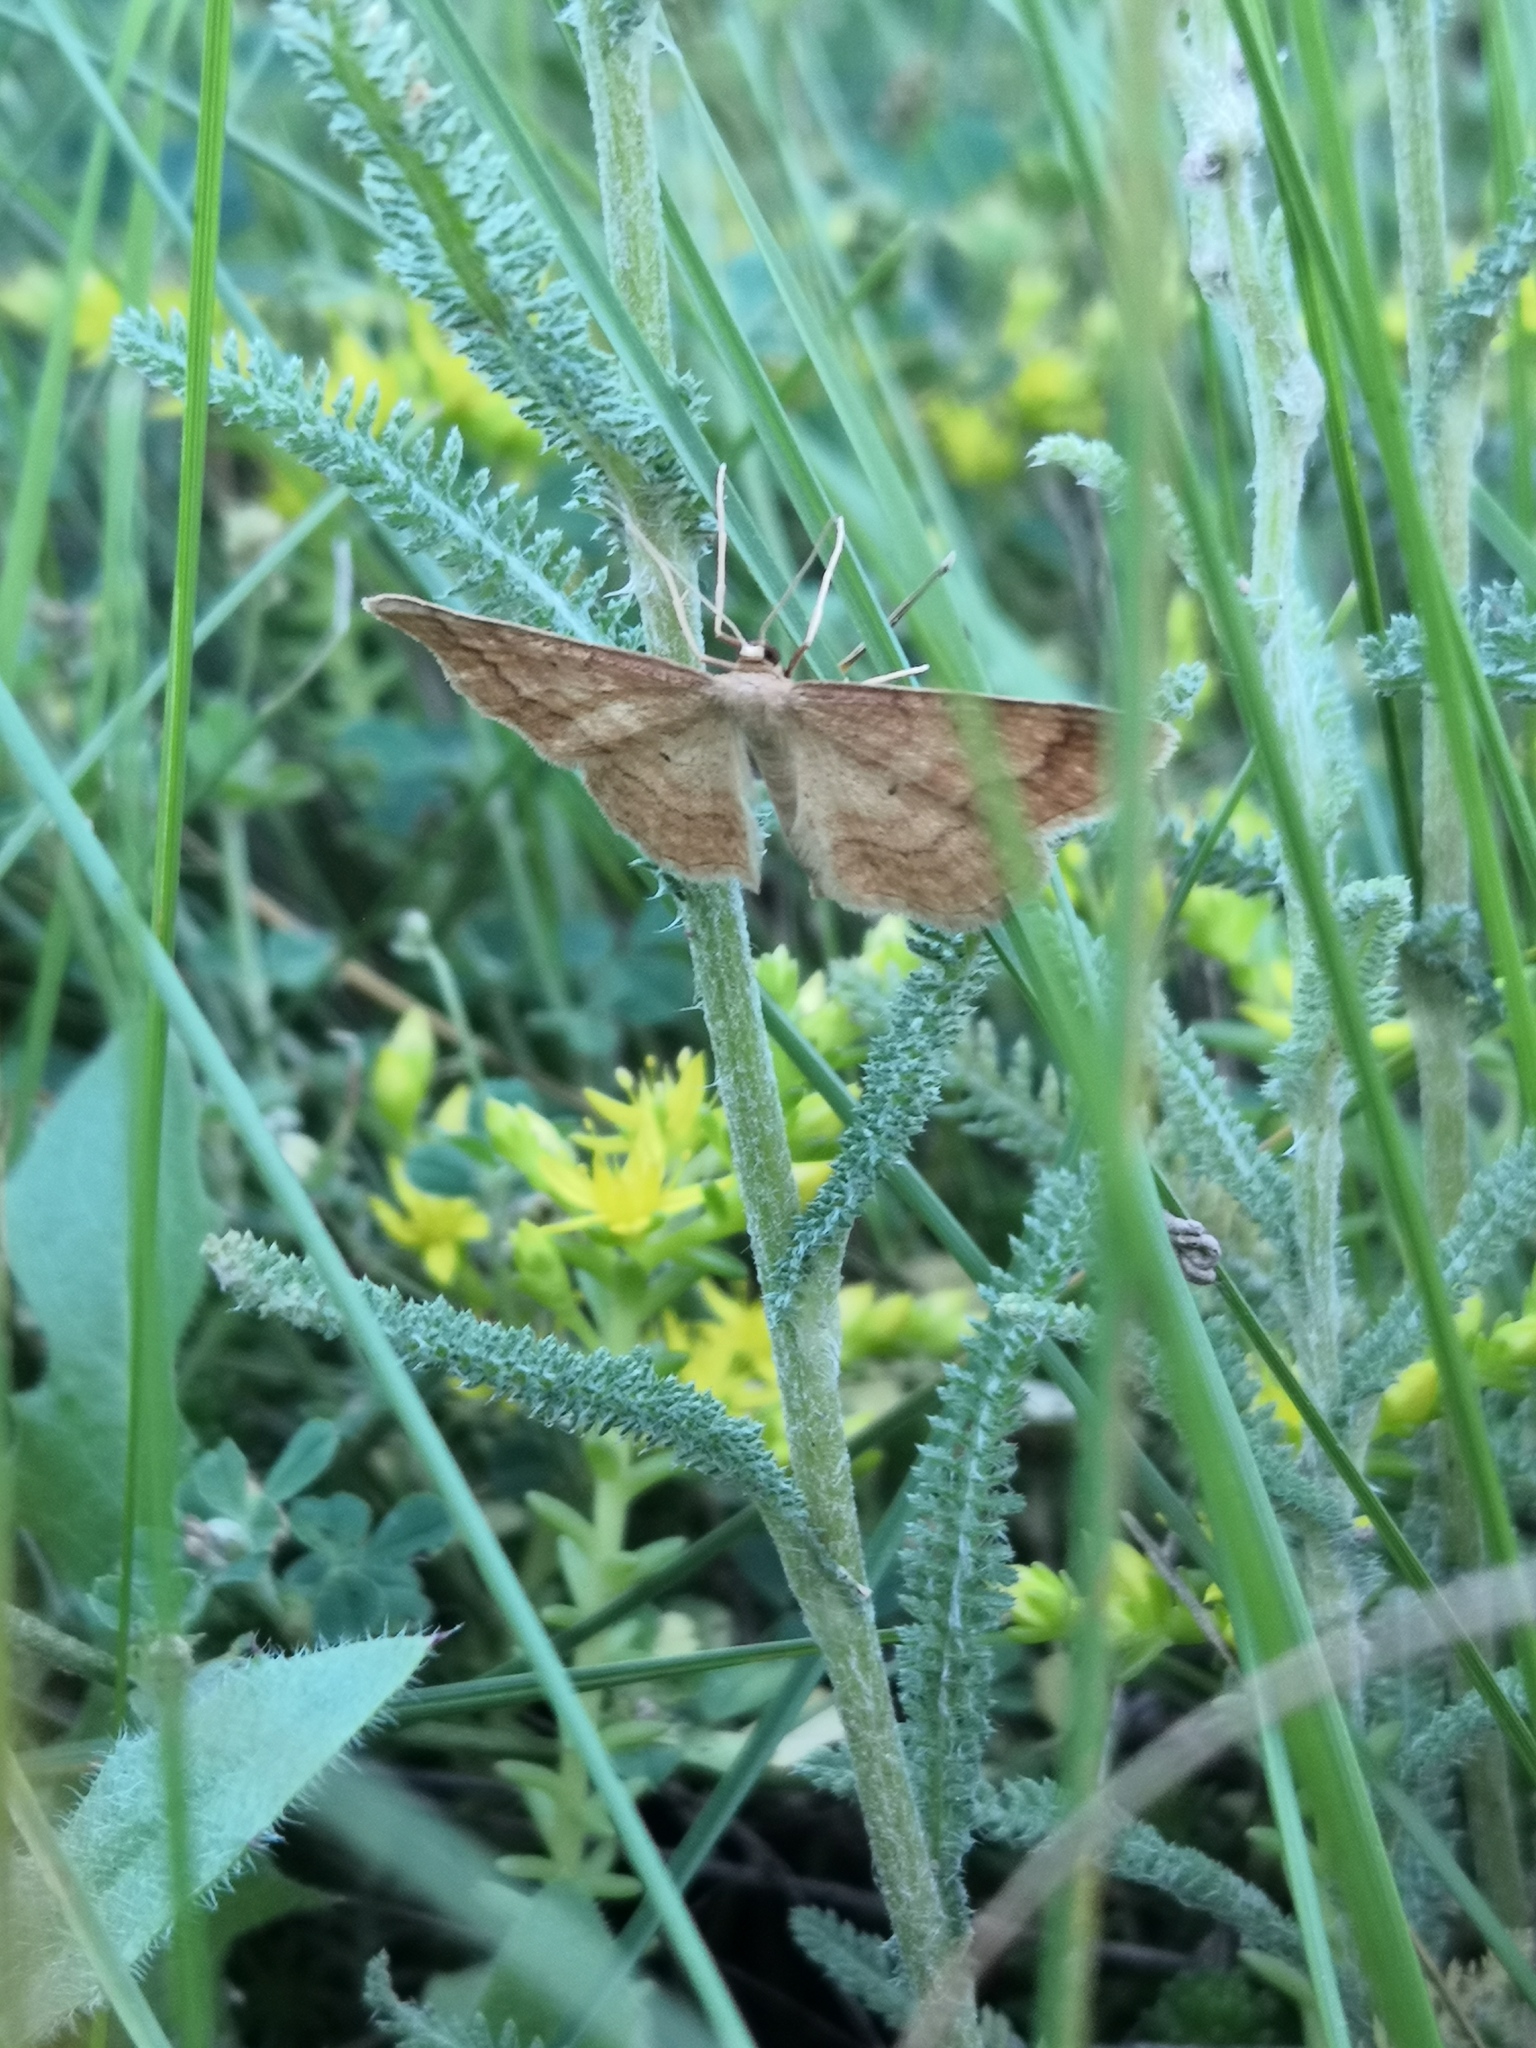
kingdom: Animalia
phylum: Arthropoda
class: Insecta
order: Lepidoptera
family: Geometridae
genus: Idaea
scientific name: Idaea rufaria
